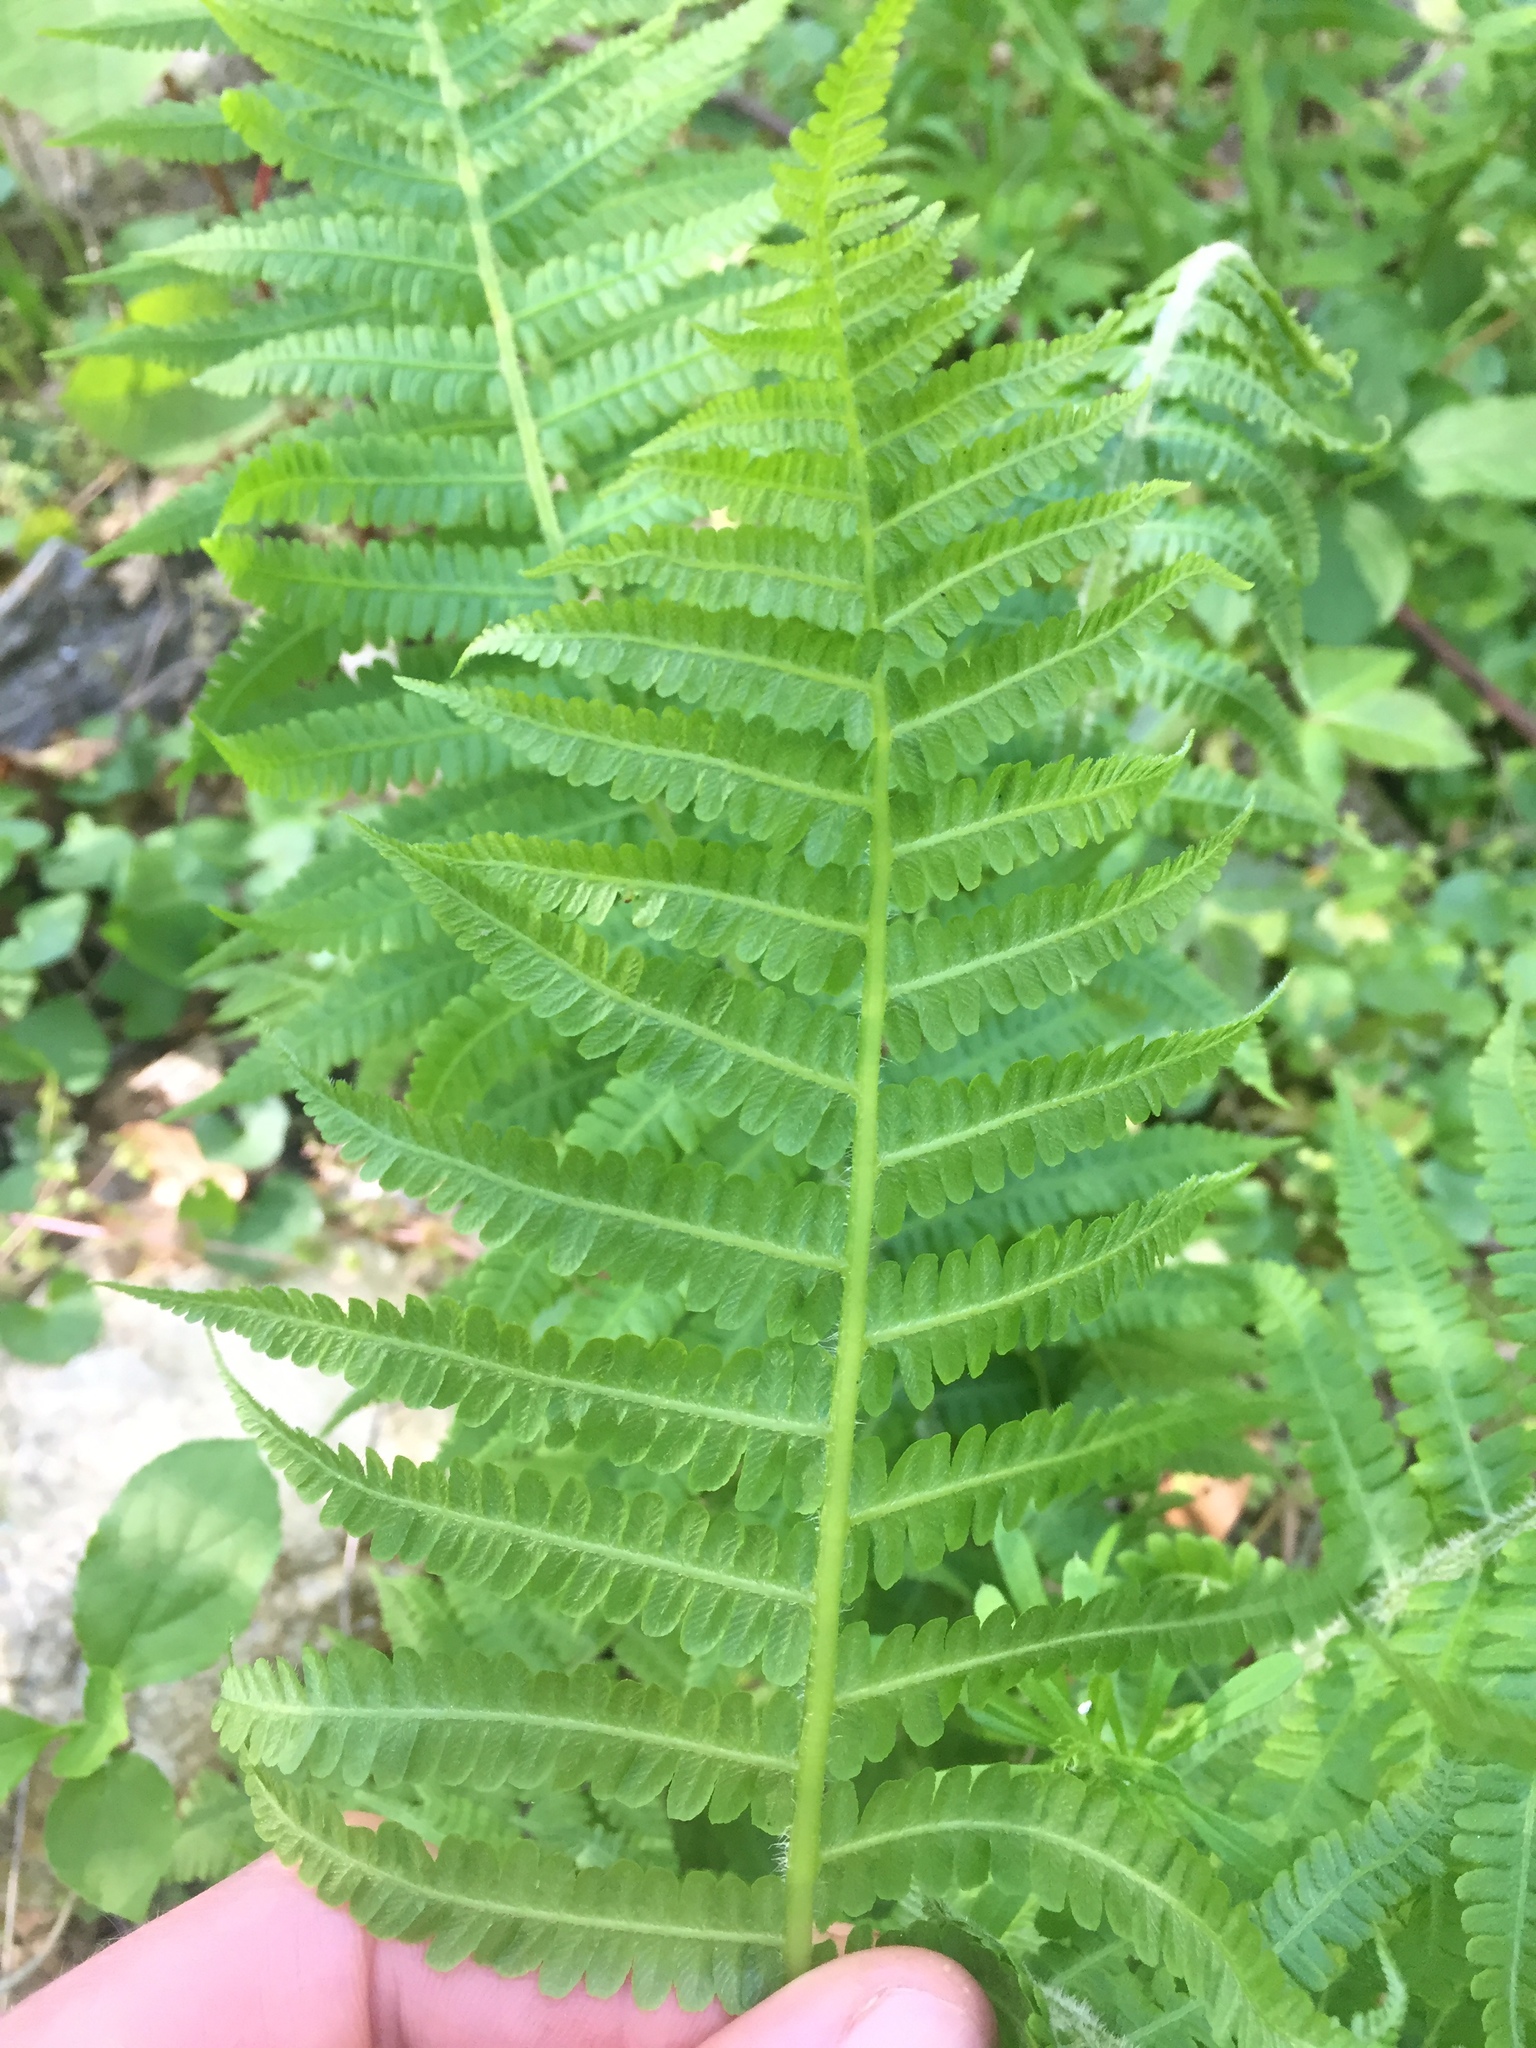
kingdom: Plantae
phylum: Tracheophyta
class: Polypodiopsida
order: Polypodiales
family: Athyriaceae
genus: Deparia
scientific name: Deparia acrostichoides
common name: Silver false spleenwort
